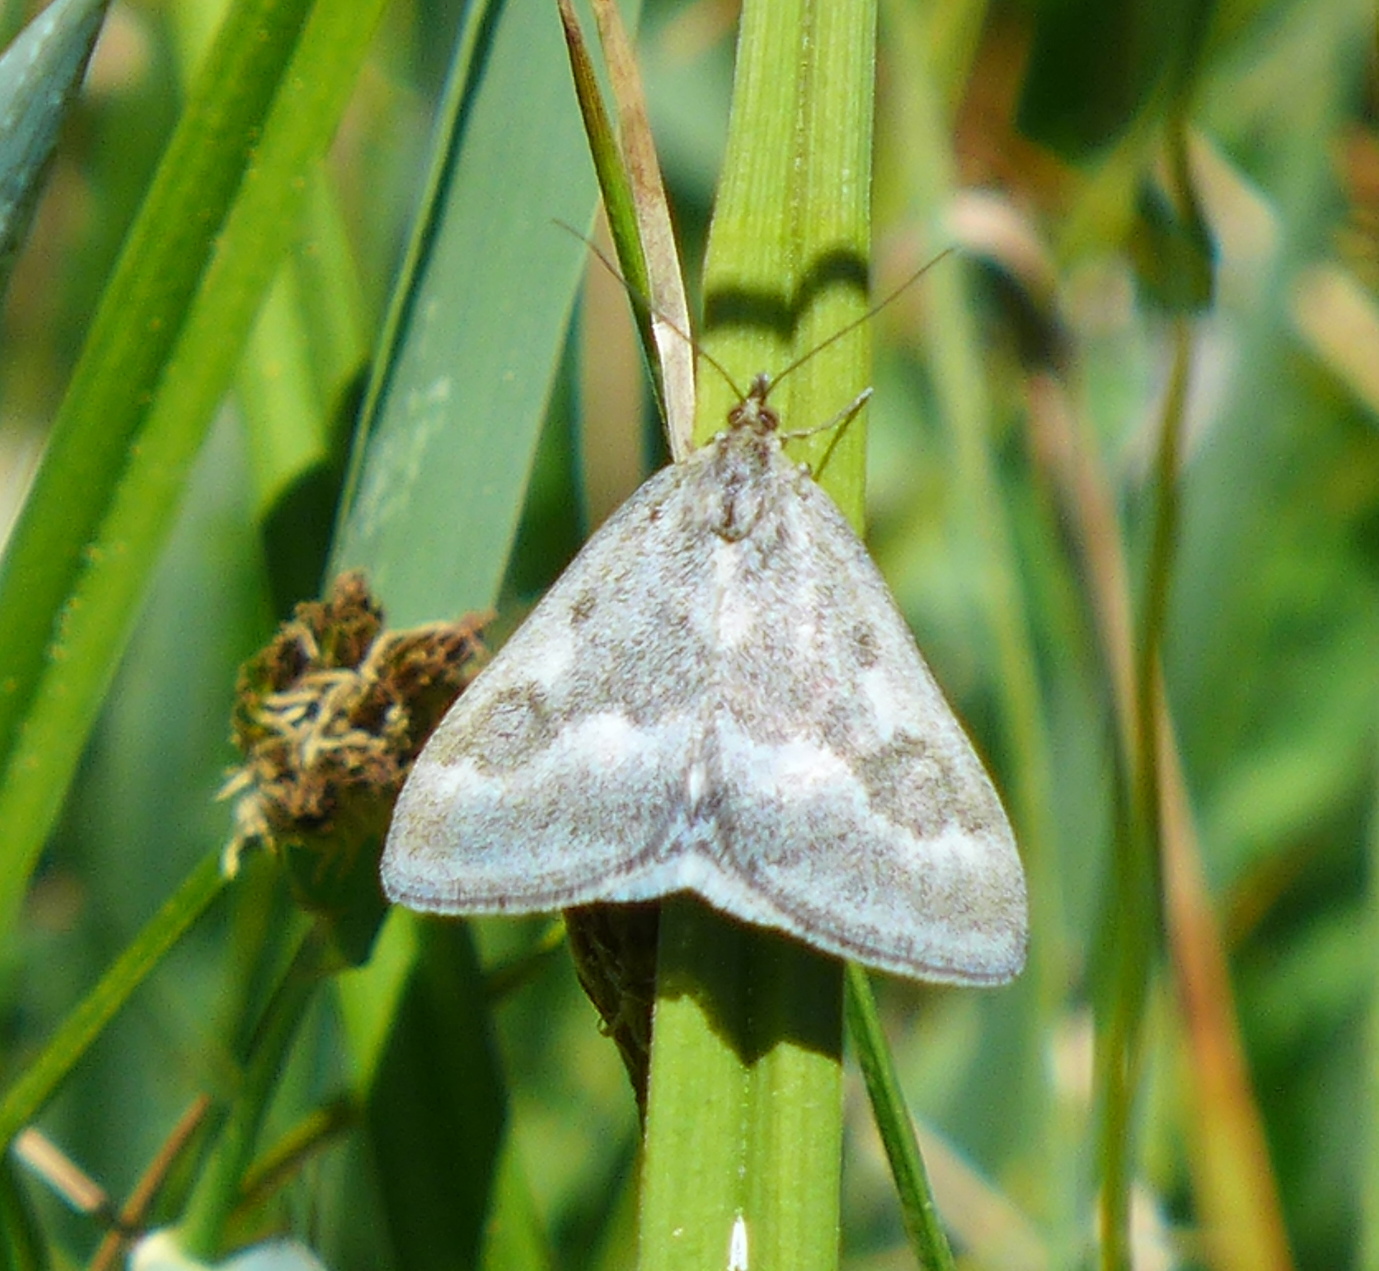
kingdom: Animalia
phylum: Arthropoda
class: Insecta
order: Lepidoptera
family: Crambidae
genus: Pyrausta
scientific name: Pyrausta unifascialis
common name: One-banded pyrausta
